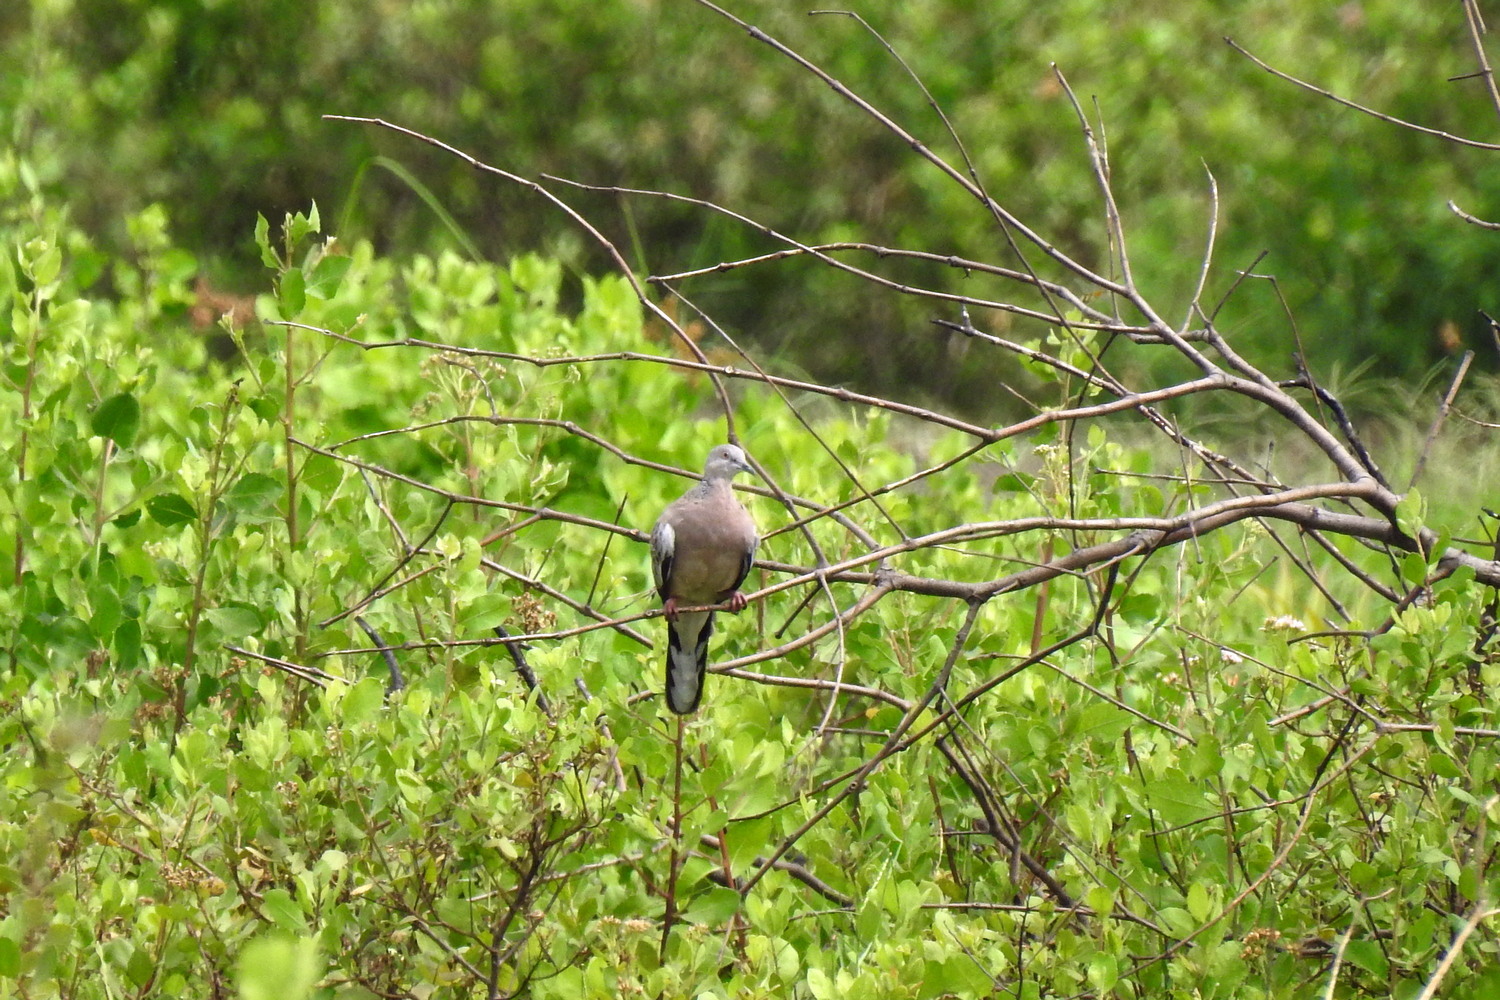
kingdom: Animalia
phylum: Chordata
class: Aves
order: Columbiformes
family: Columbidae
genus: Spilopelia
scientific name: Spilopelia chinensis
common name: Spotted dove
